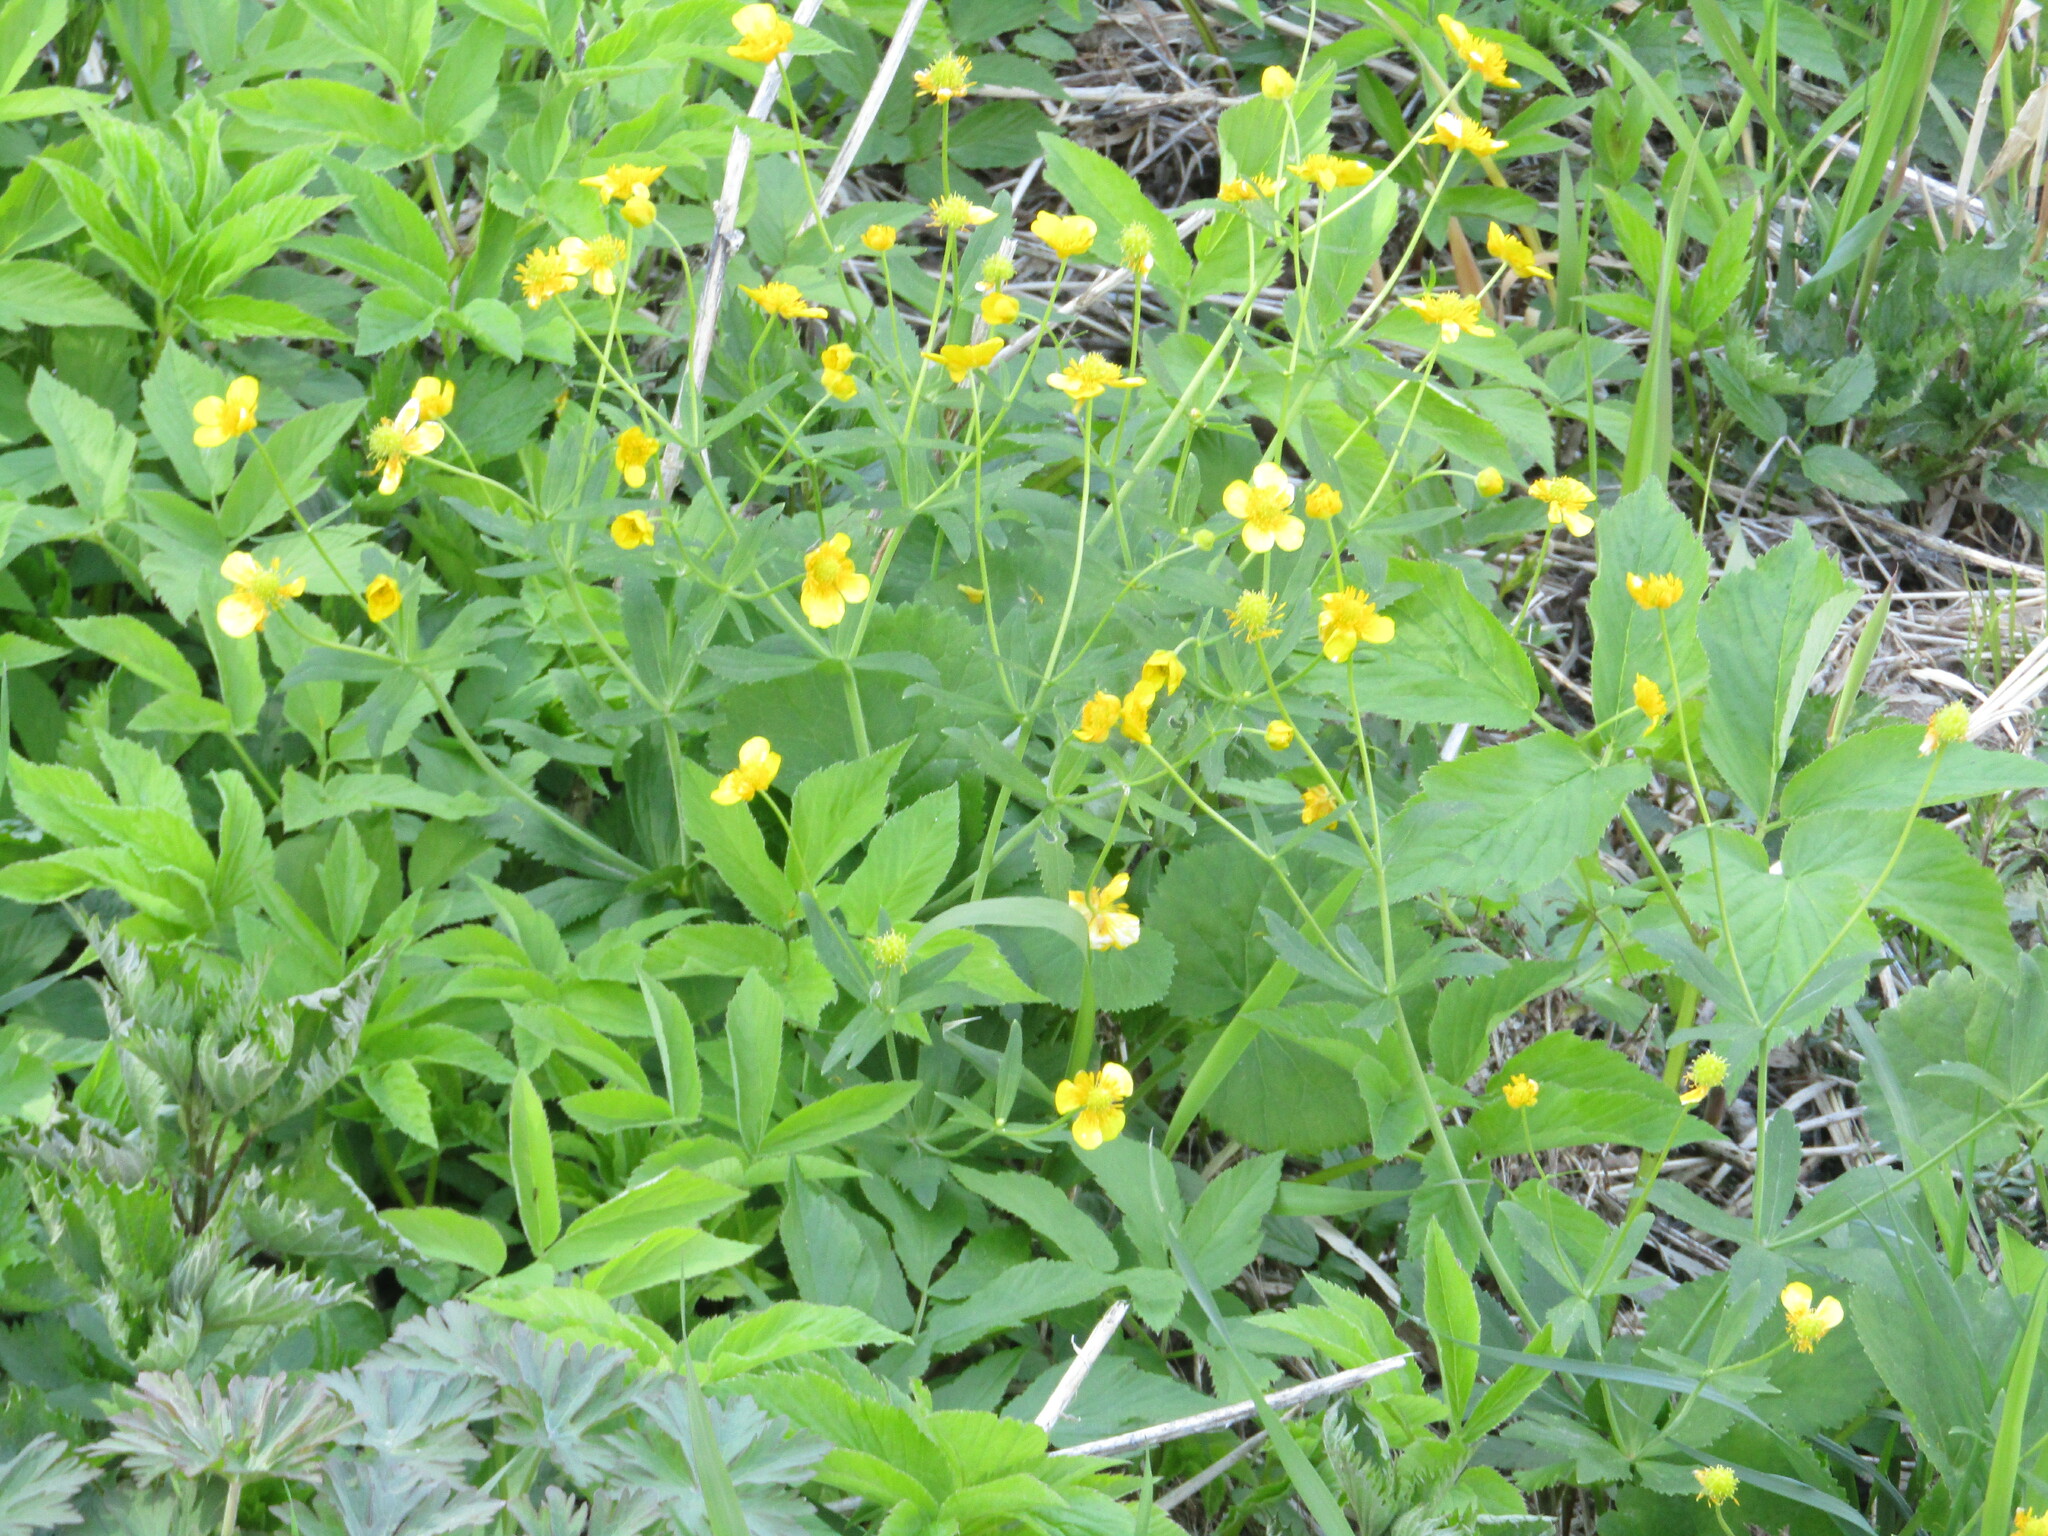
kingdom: Plantae
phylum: Tracheophyta
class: Magnoliopsida
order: Ranunculales
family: Ranunculaceae
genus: Ranunculus
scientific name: Ranunculus cassubicus
